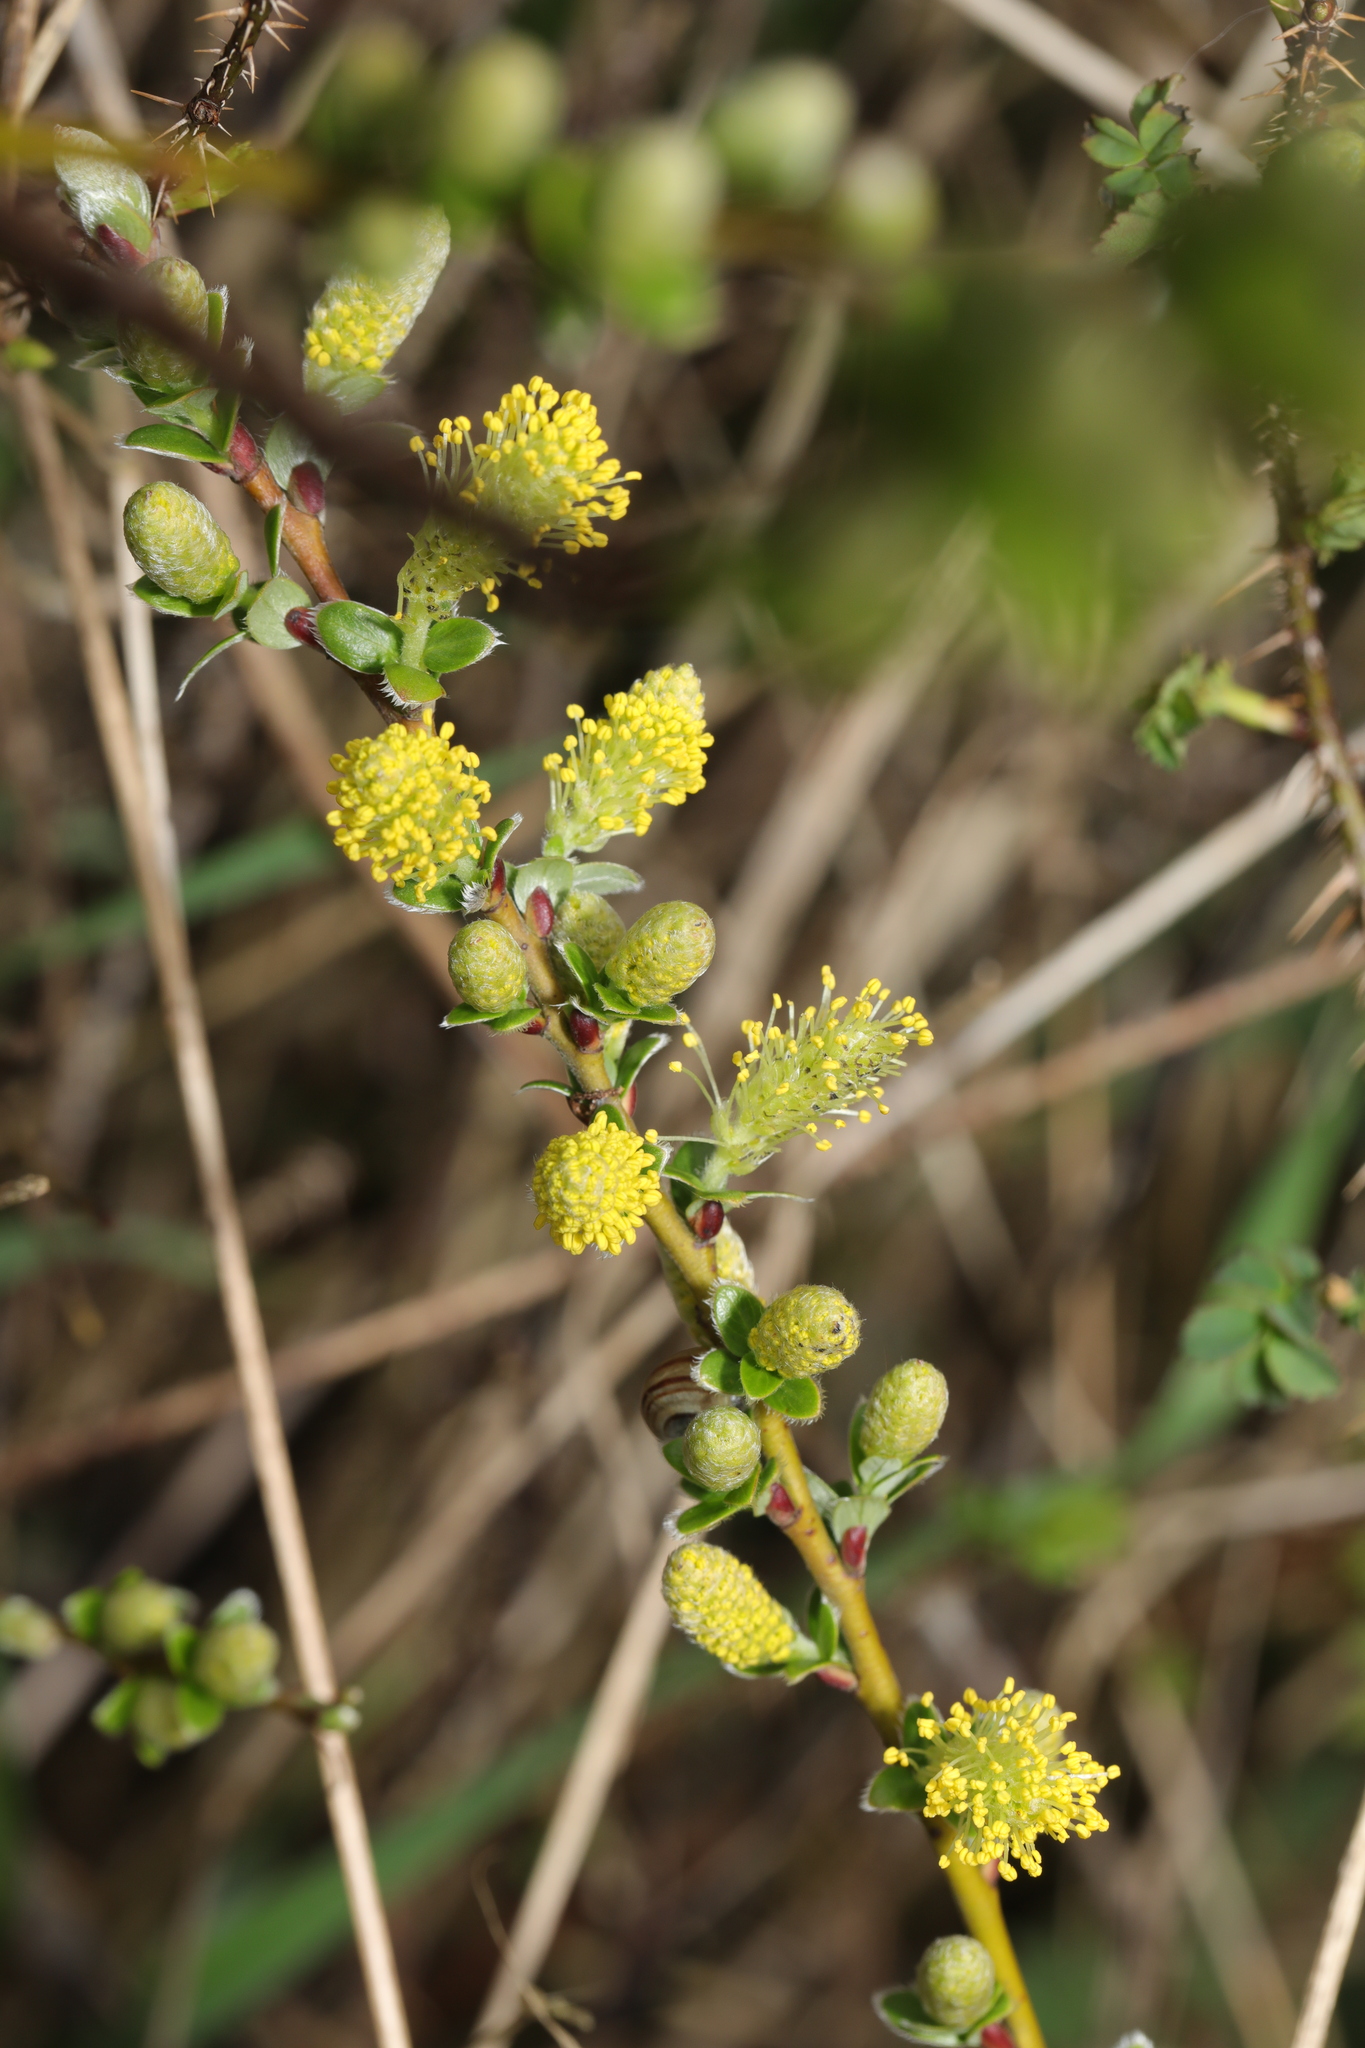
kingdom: Plantae
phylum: Tracheophyta
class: Magnoliopsida
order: Malpighiales
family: Salicaceae
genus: Salix
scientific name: Salix repens
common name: Creeping willow
